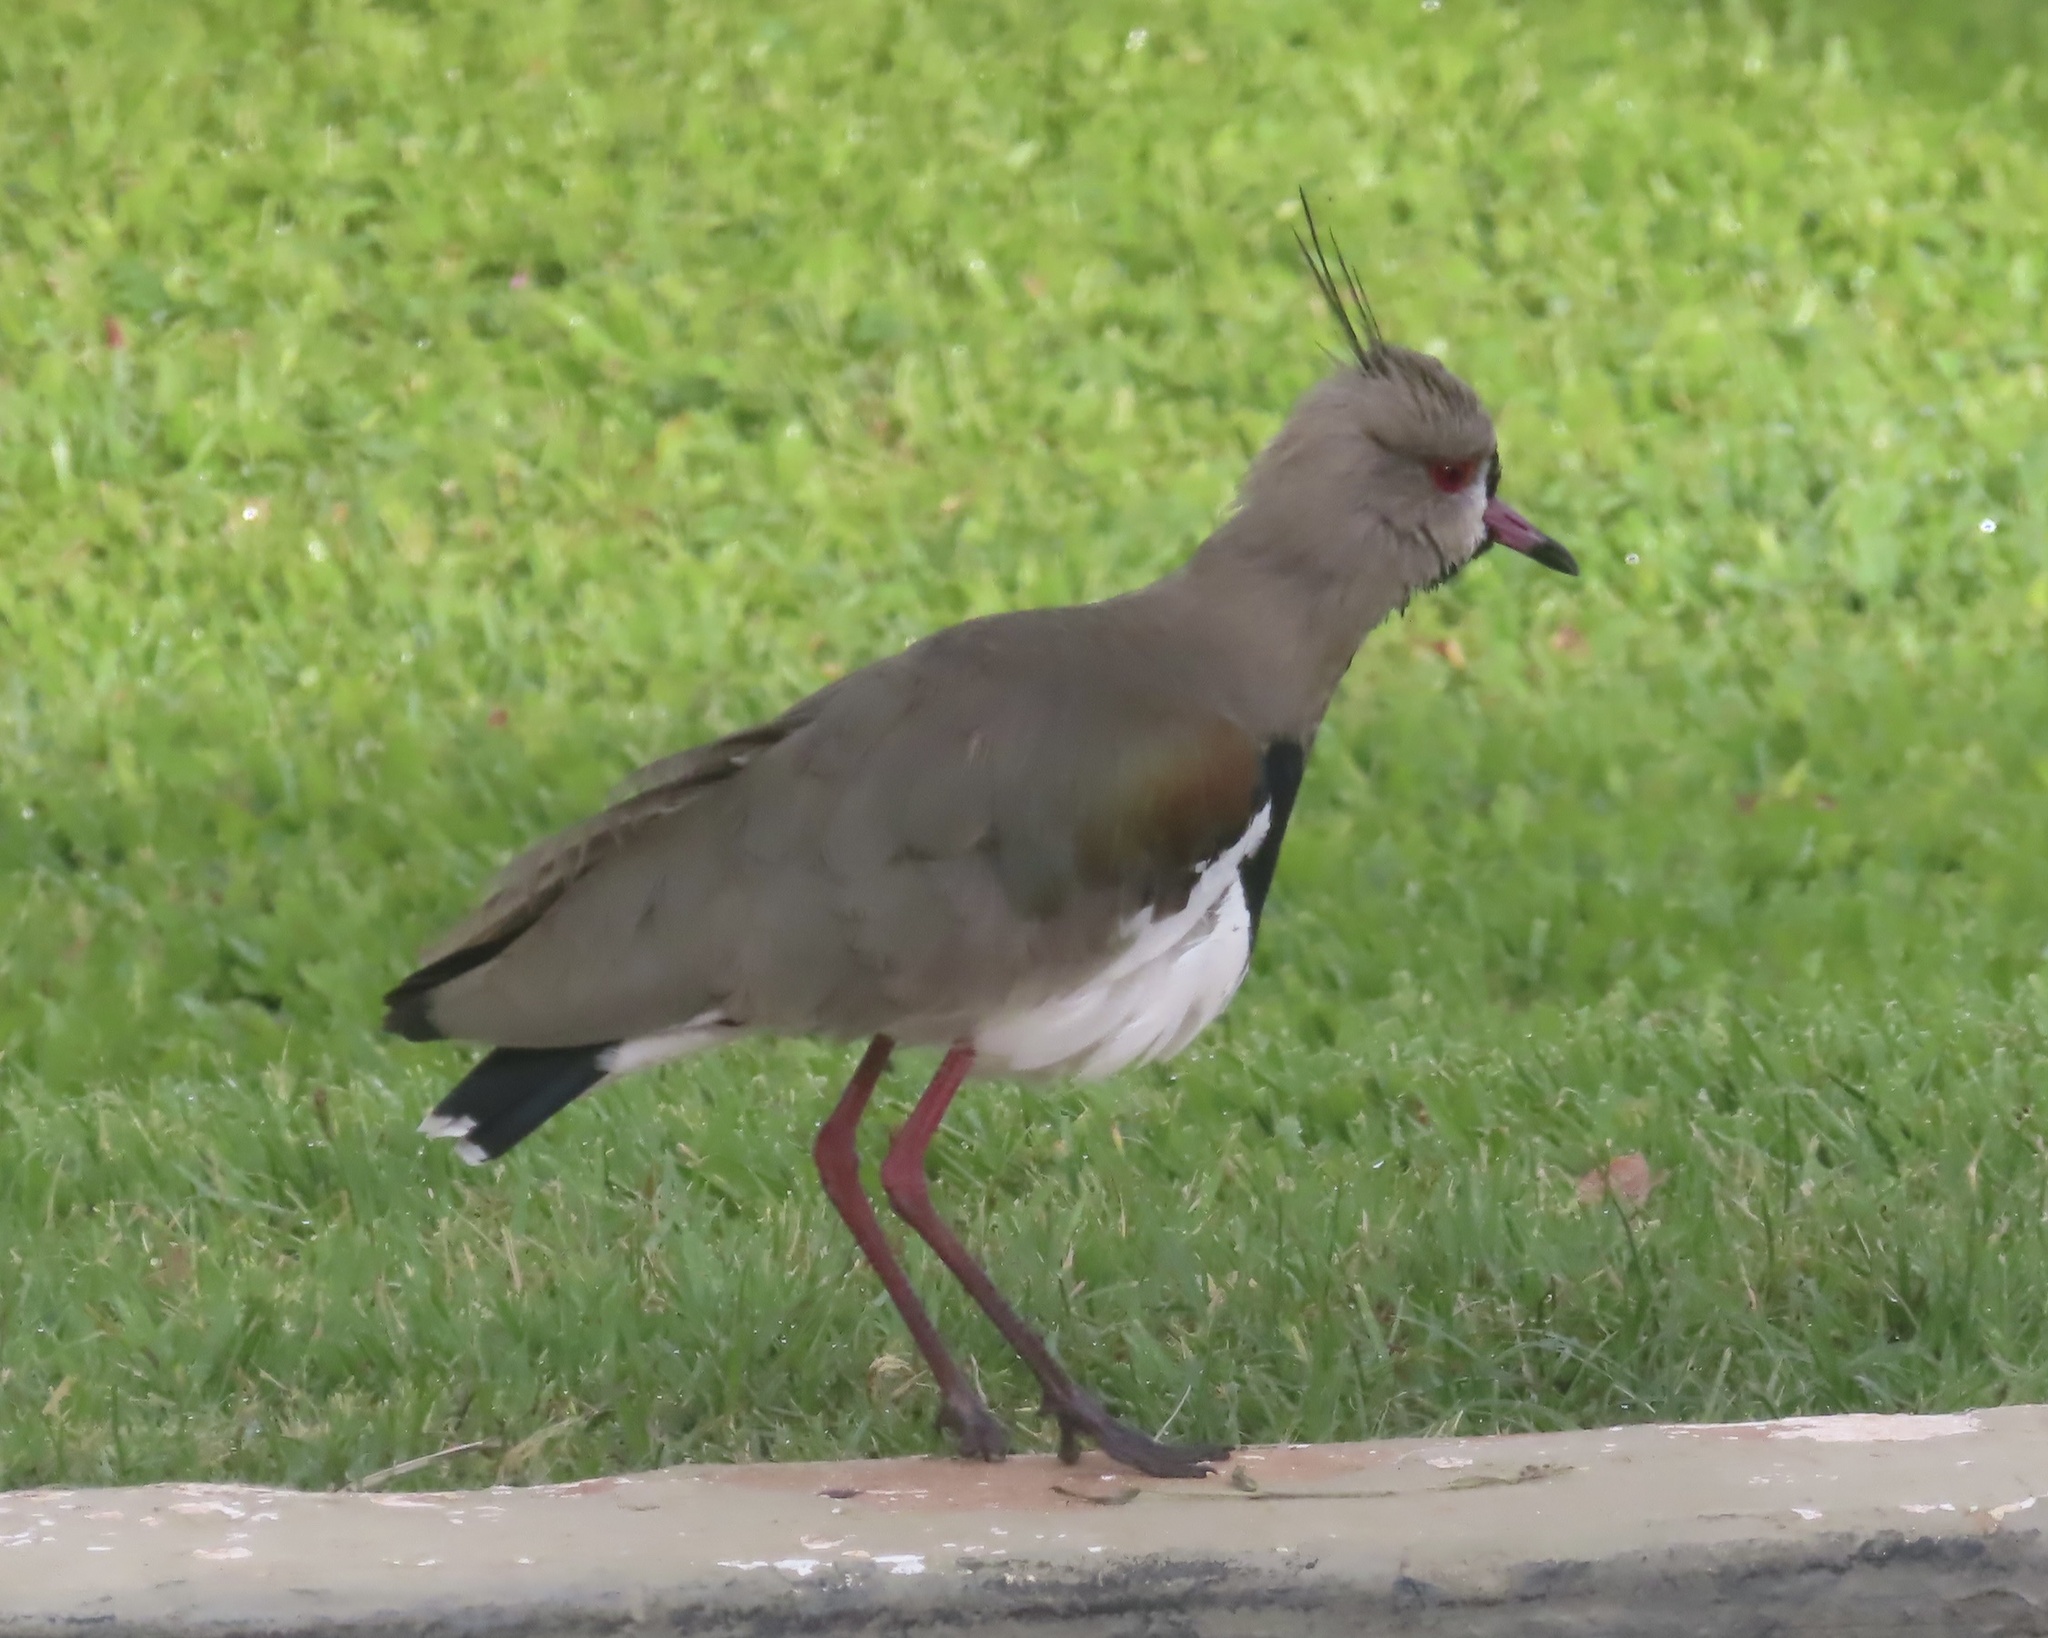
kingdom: Animalia
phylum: Chordata
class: Aves
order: Charadriiformes
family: Charadriidae
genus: Vanellus
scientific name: Vanellus chilensis
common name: Southern lapwing
